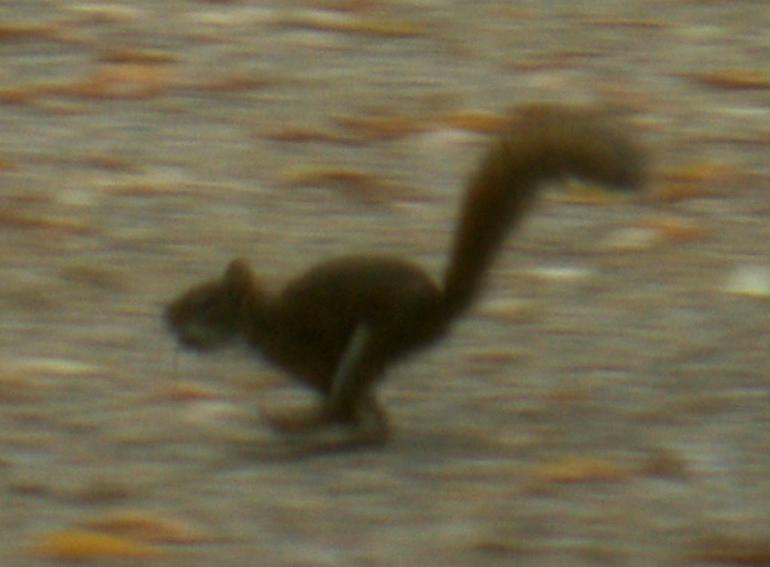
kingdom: Animalia
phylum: Chordata
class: Mammalia
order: Rodentia
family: Sciuridae
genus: Tamiasciurus
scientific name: Tamiasciurus hudsonicus
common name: Red squirrel
